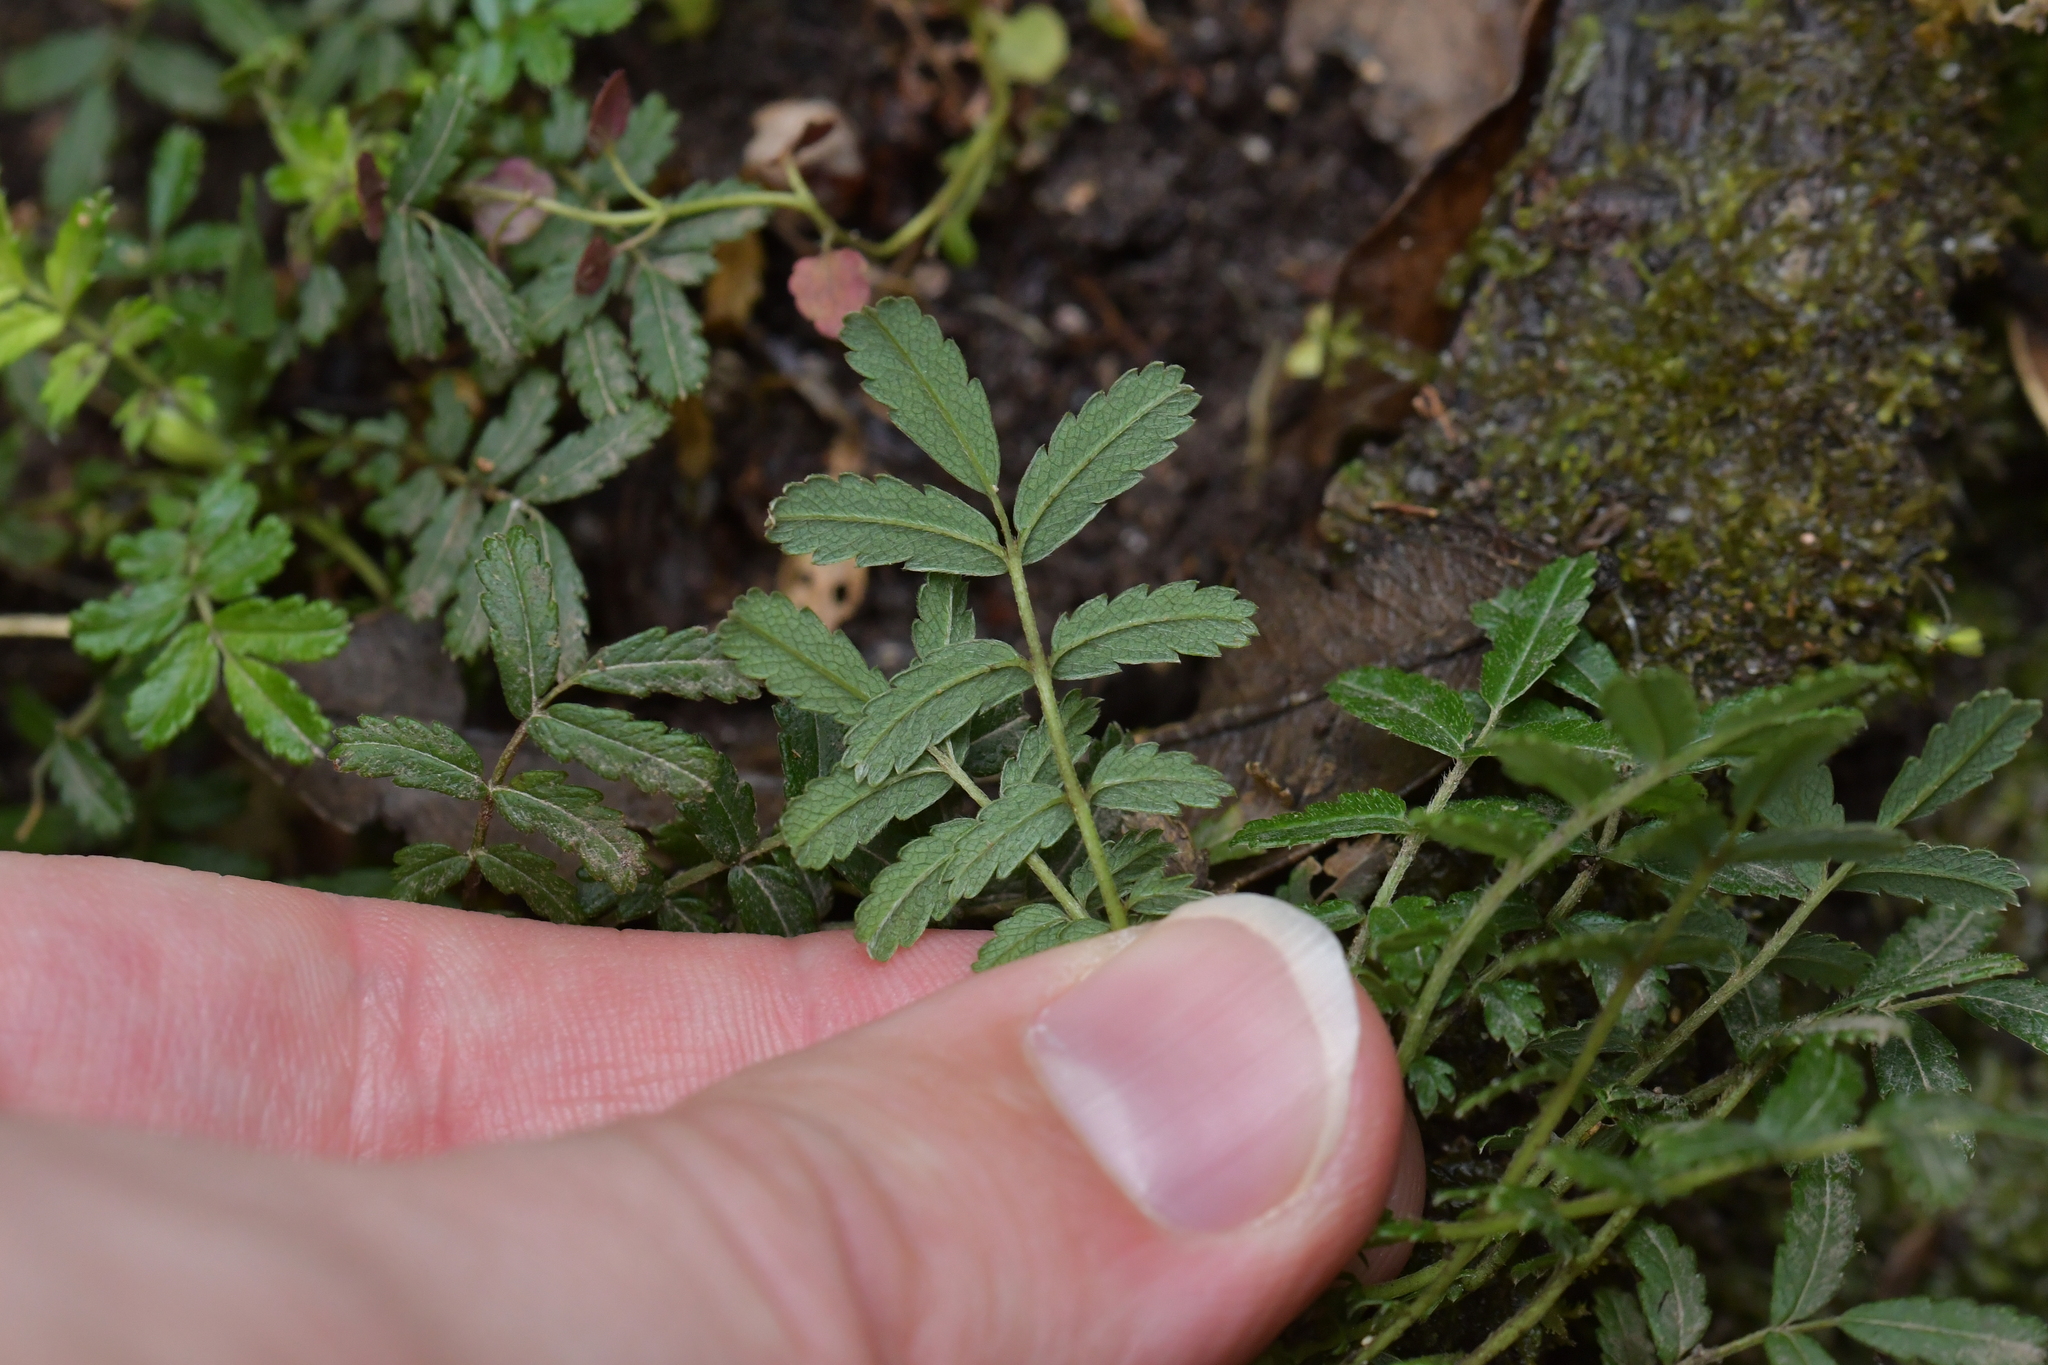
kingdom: Plantae
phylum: Tracheophyta
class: Magnoliopsida
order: Rosales
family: Rosaceae
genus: Acaena
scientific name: Acaena novae-zelandiae
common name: Pirri-pirri-bur
